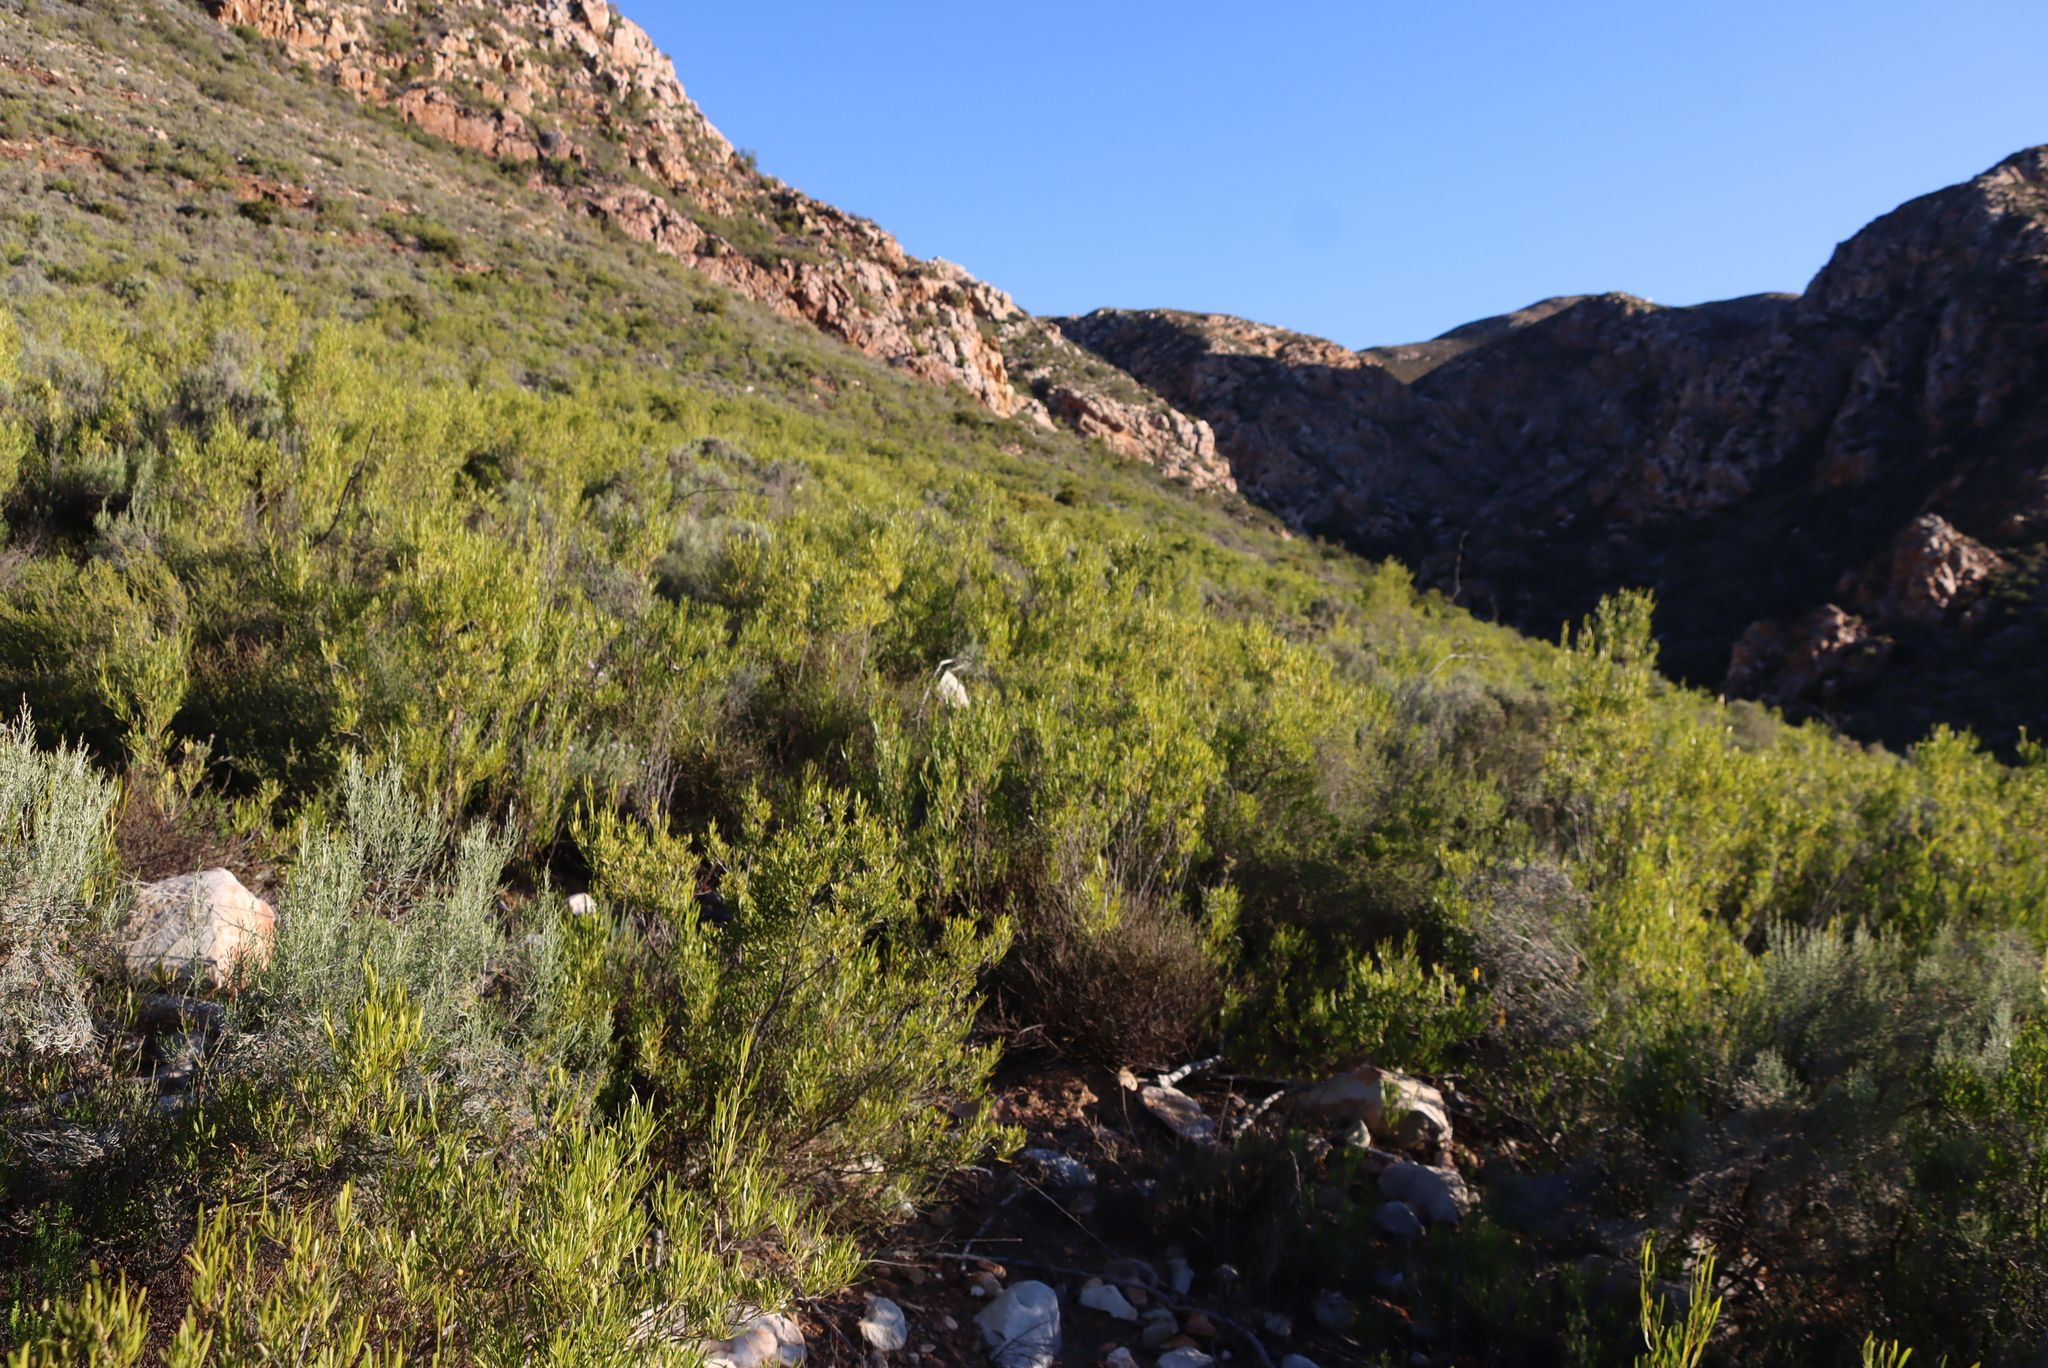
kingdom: Plantae
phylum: Tracheophyta
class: Magnoliopsida
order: Sapindales
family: Sapindaceae
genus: Dodonaea
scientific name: Dodonaea viscosa
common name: Hopbush
